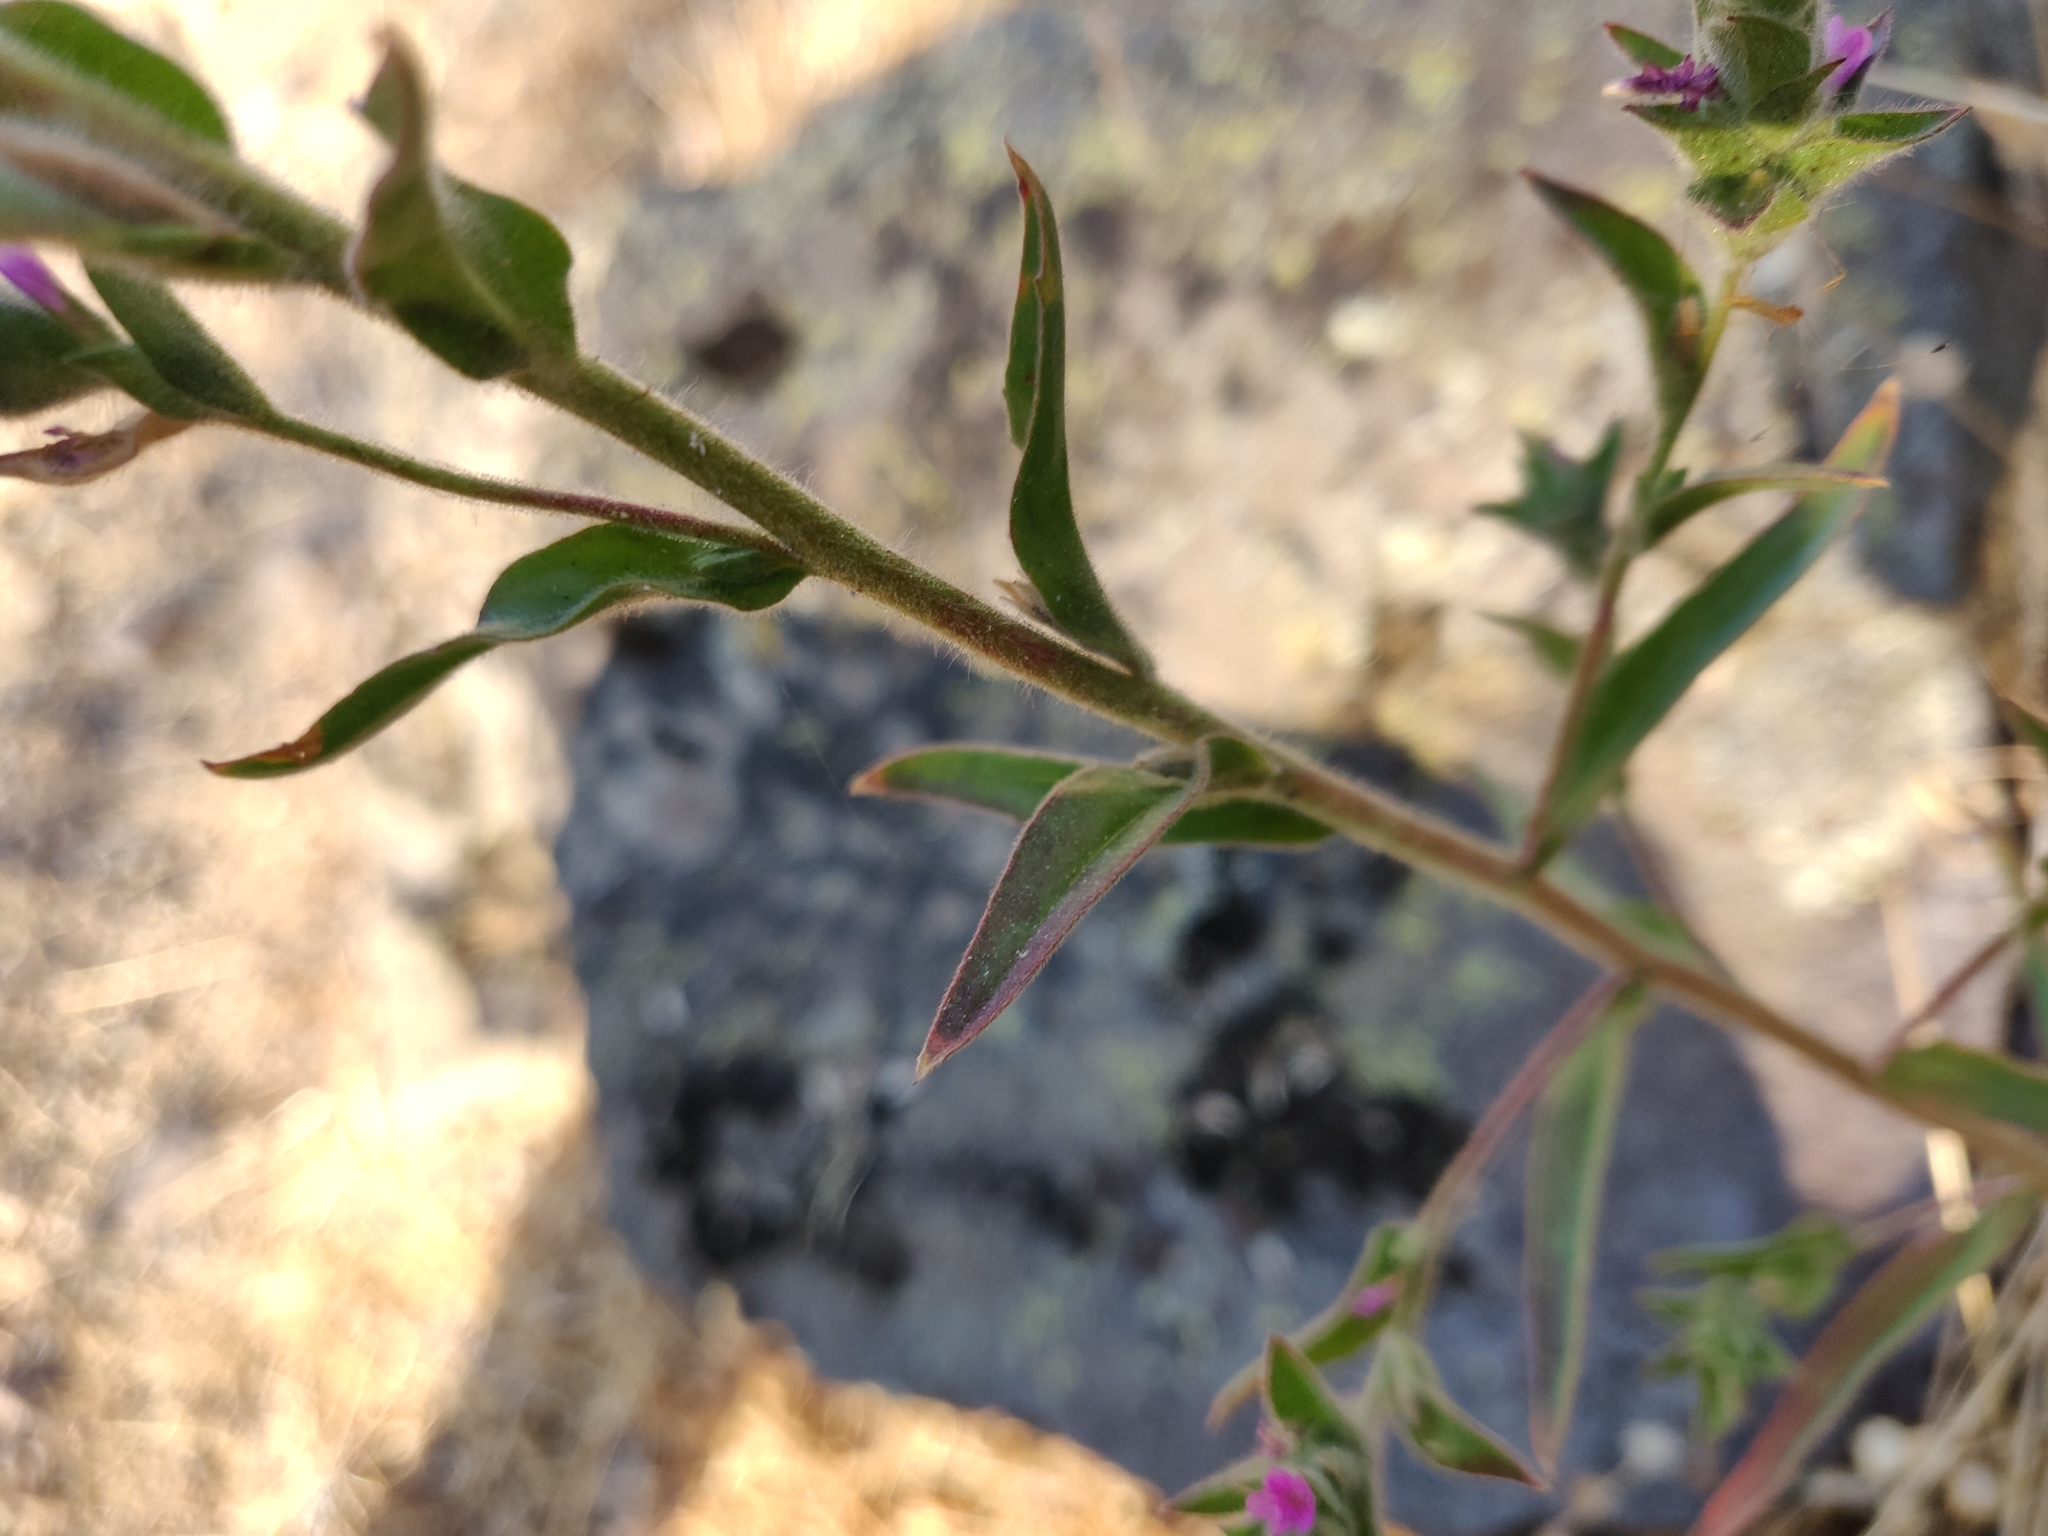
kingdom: Plantae
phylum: Tracheophyta
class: Magnoliopsida
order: Myrtales
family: Onagraceae
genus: Epilobium
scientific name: Epilobium densiflorum
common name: Dense spike-primrose
